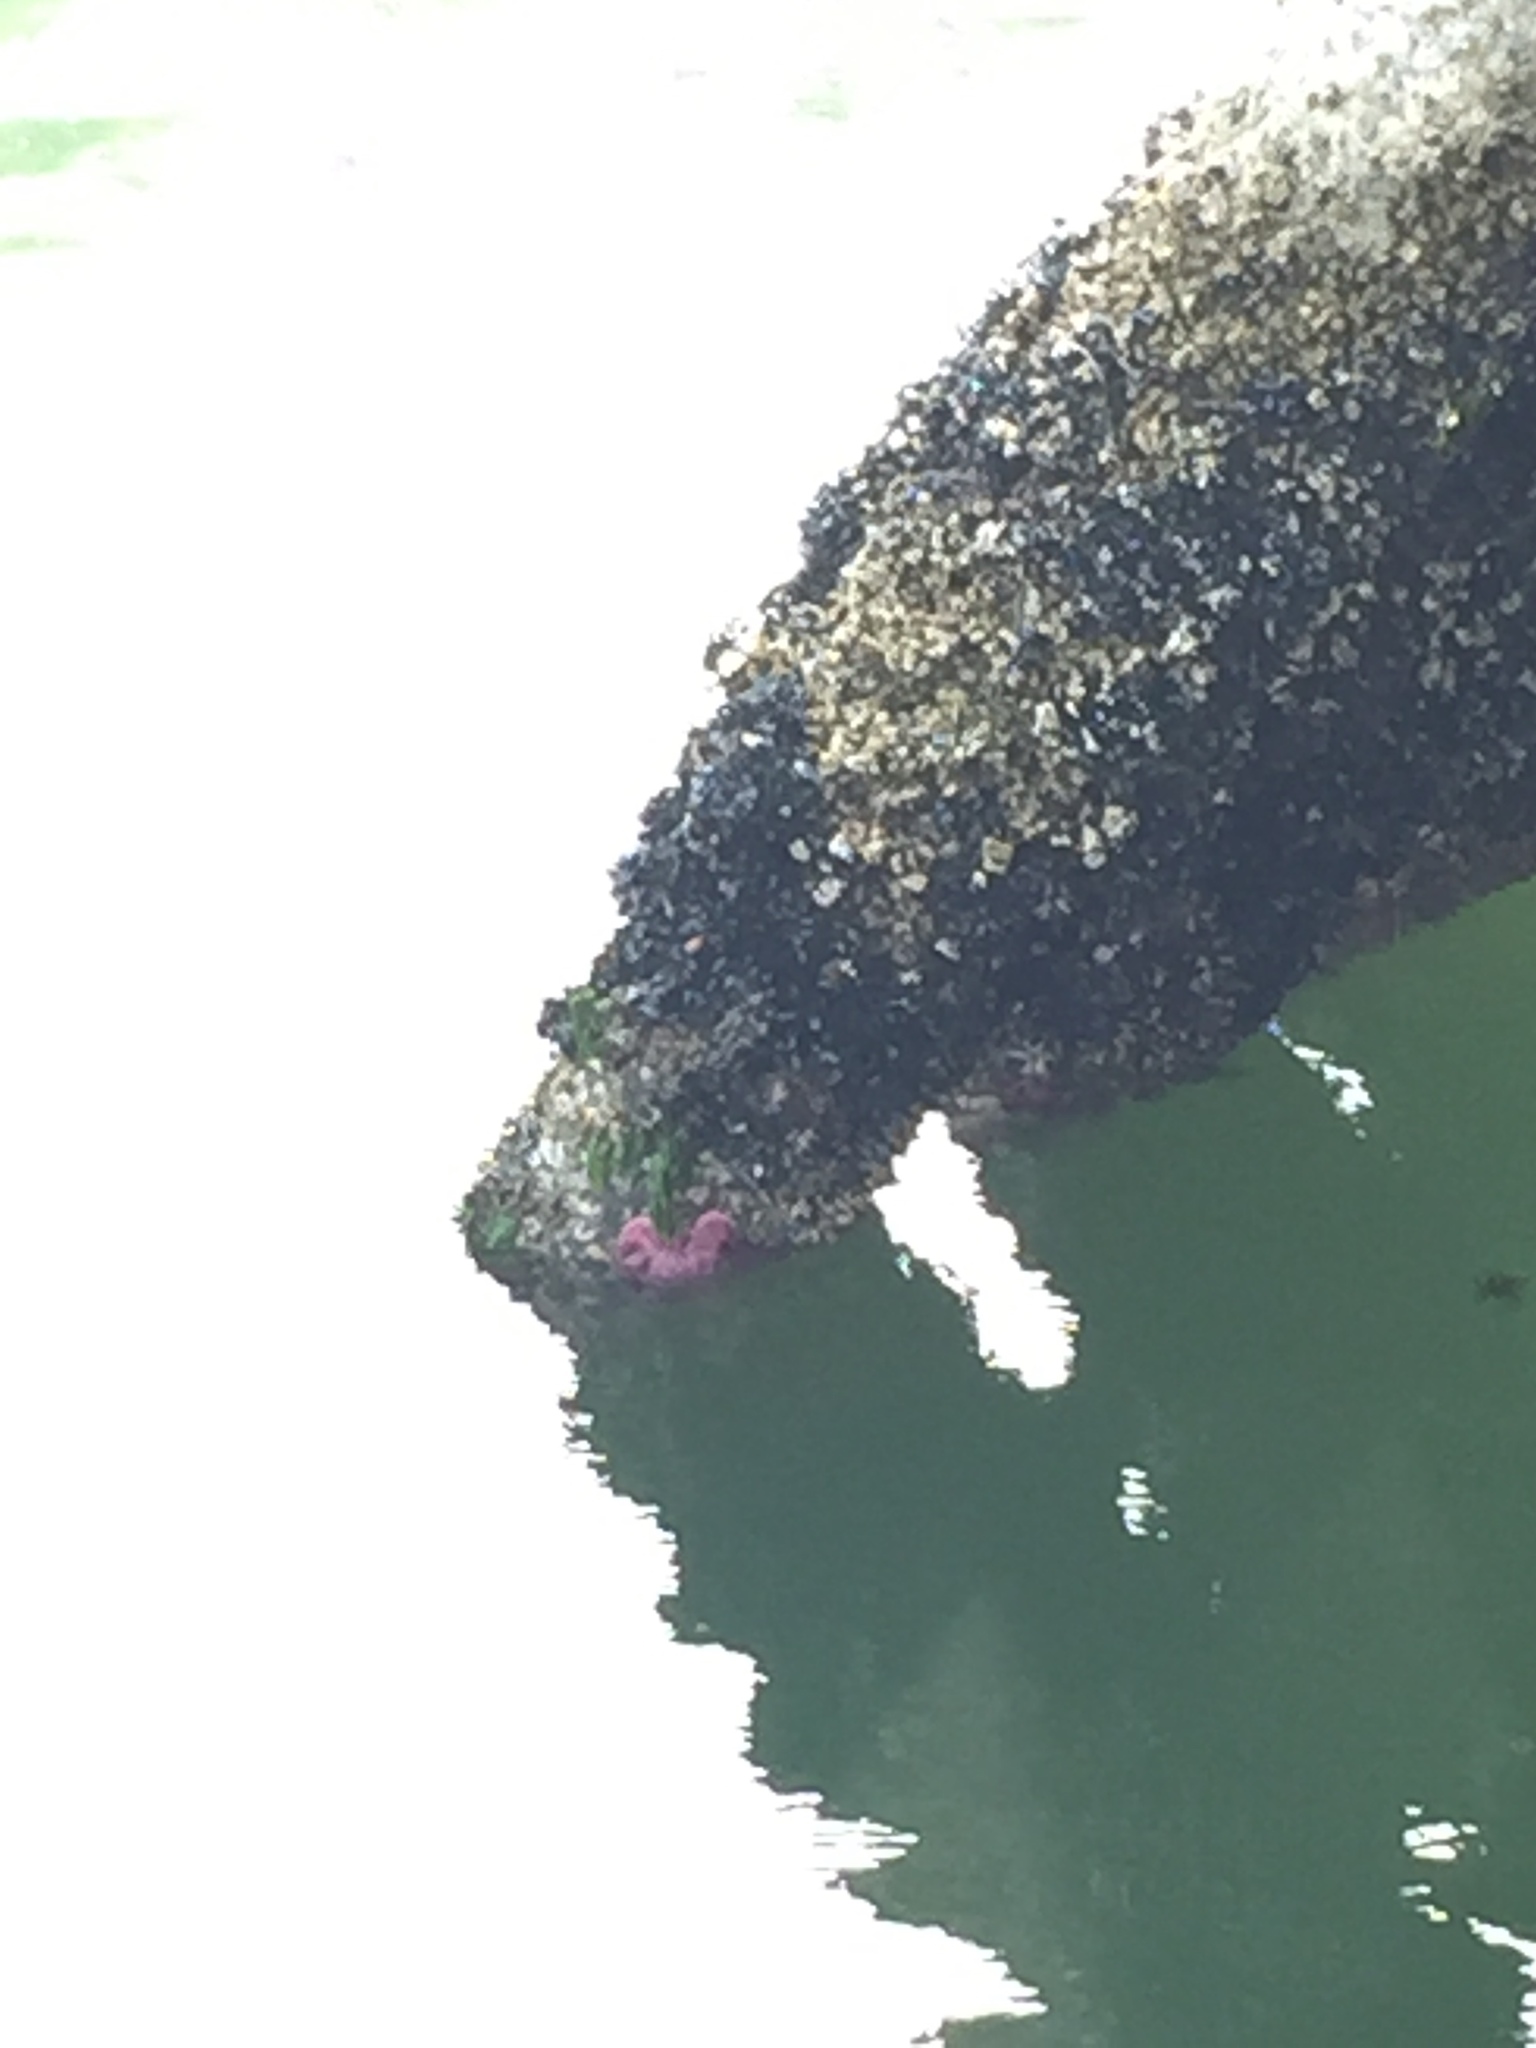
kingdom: Animalia
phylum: Echinodermata
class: Asteroidea
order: Forcipulatida
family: Asteriidae
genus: Pisaster
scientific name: Pisaster ochraceus
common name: Ochre stars
